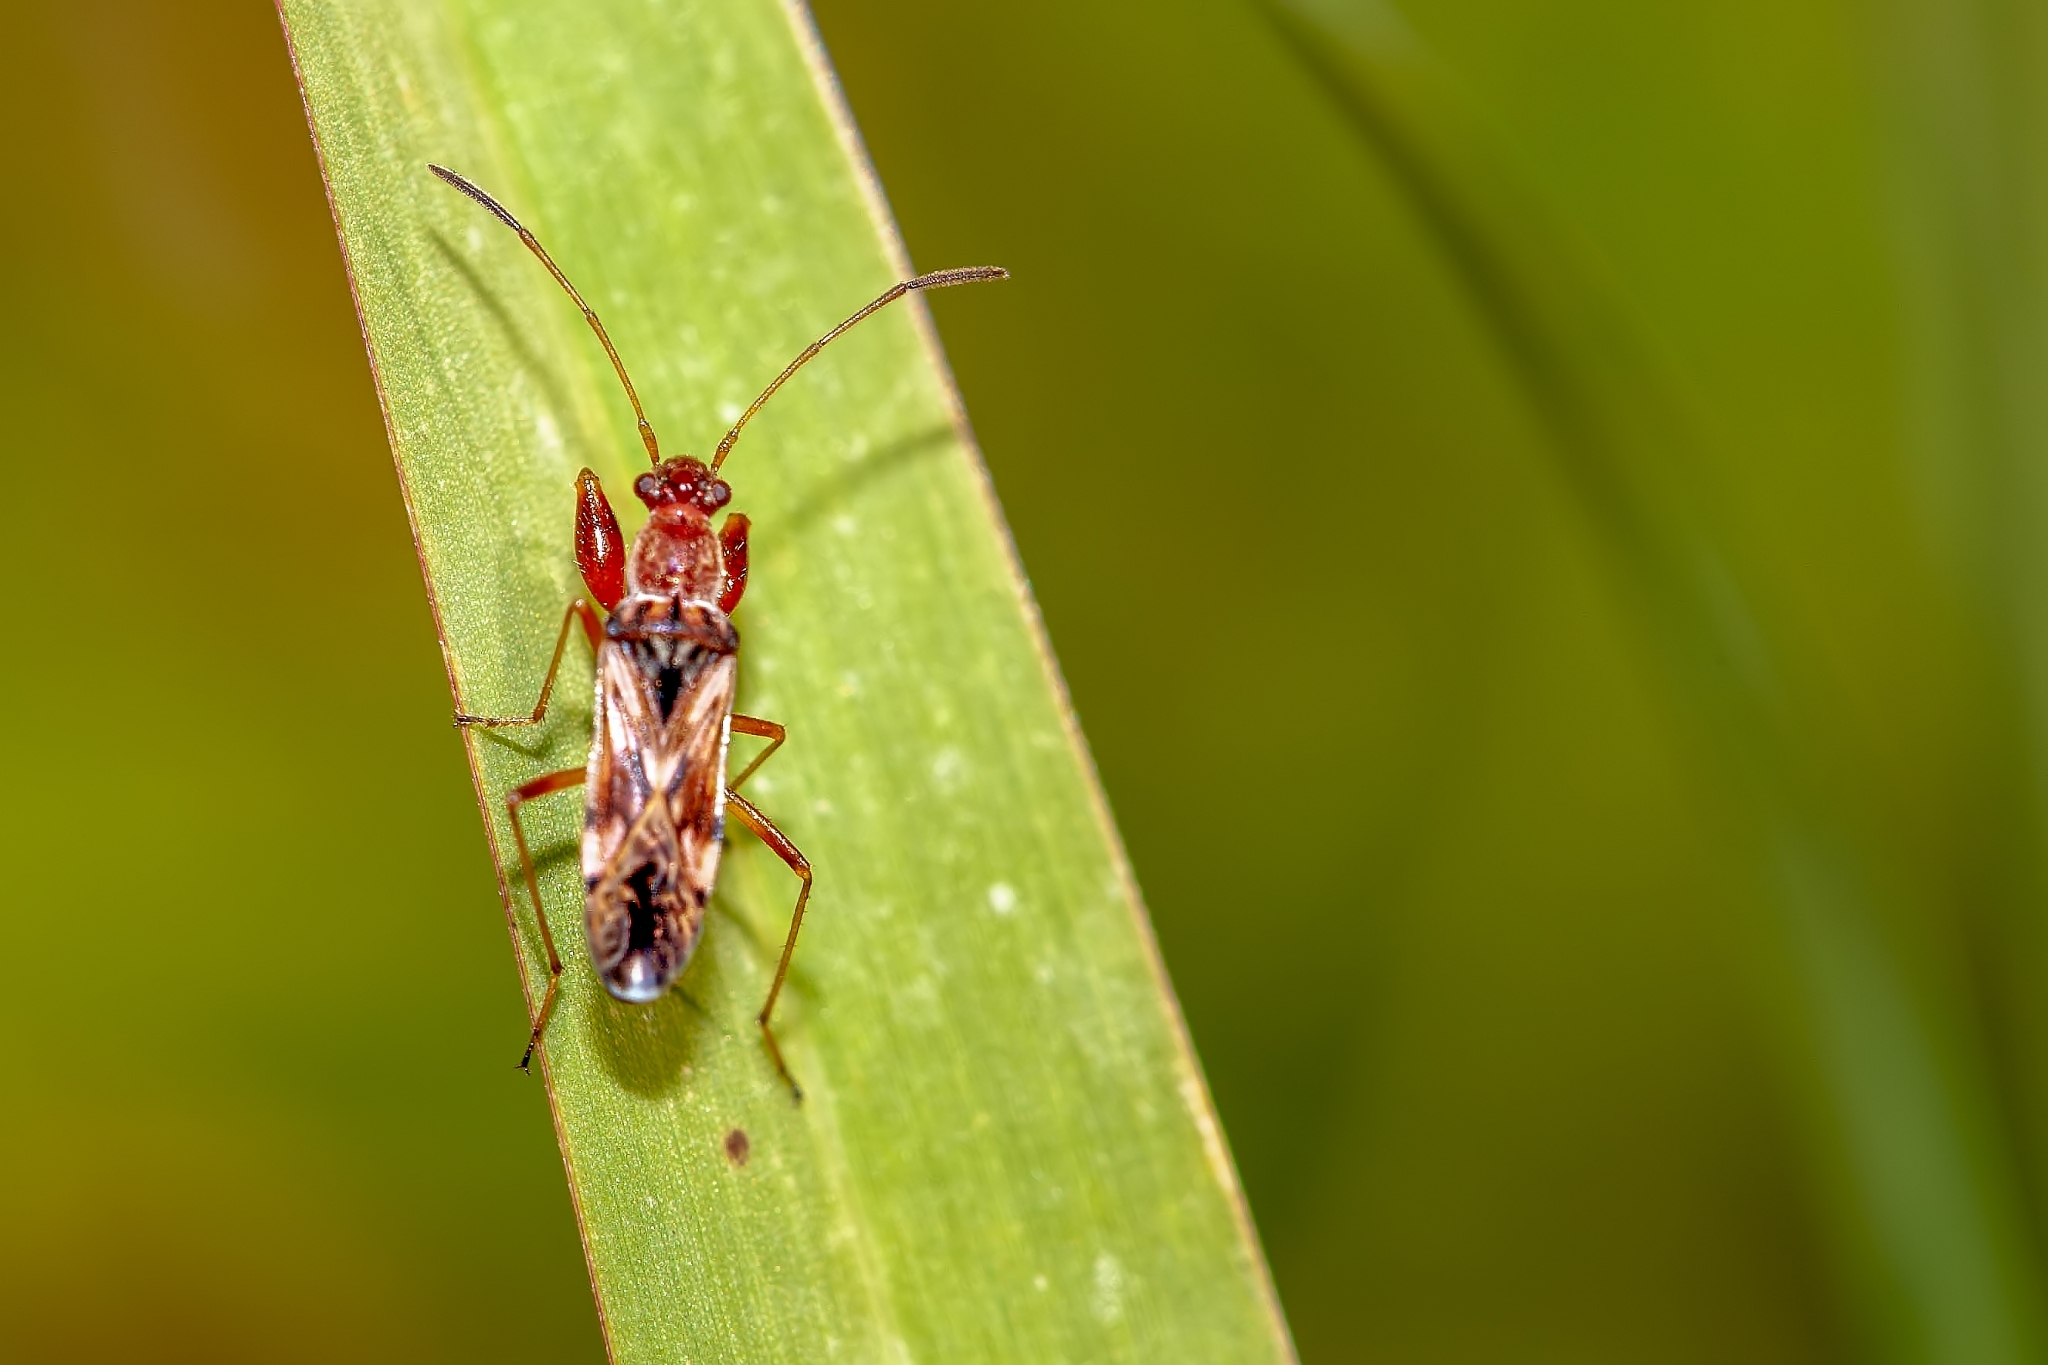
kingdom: Animalia
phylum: Arthropoda
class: Insecta
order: Hemiptera
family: Rhyparochromidae
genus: Neopamera
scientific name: Neopamera bilobata
